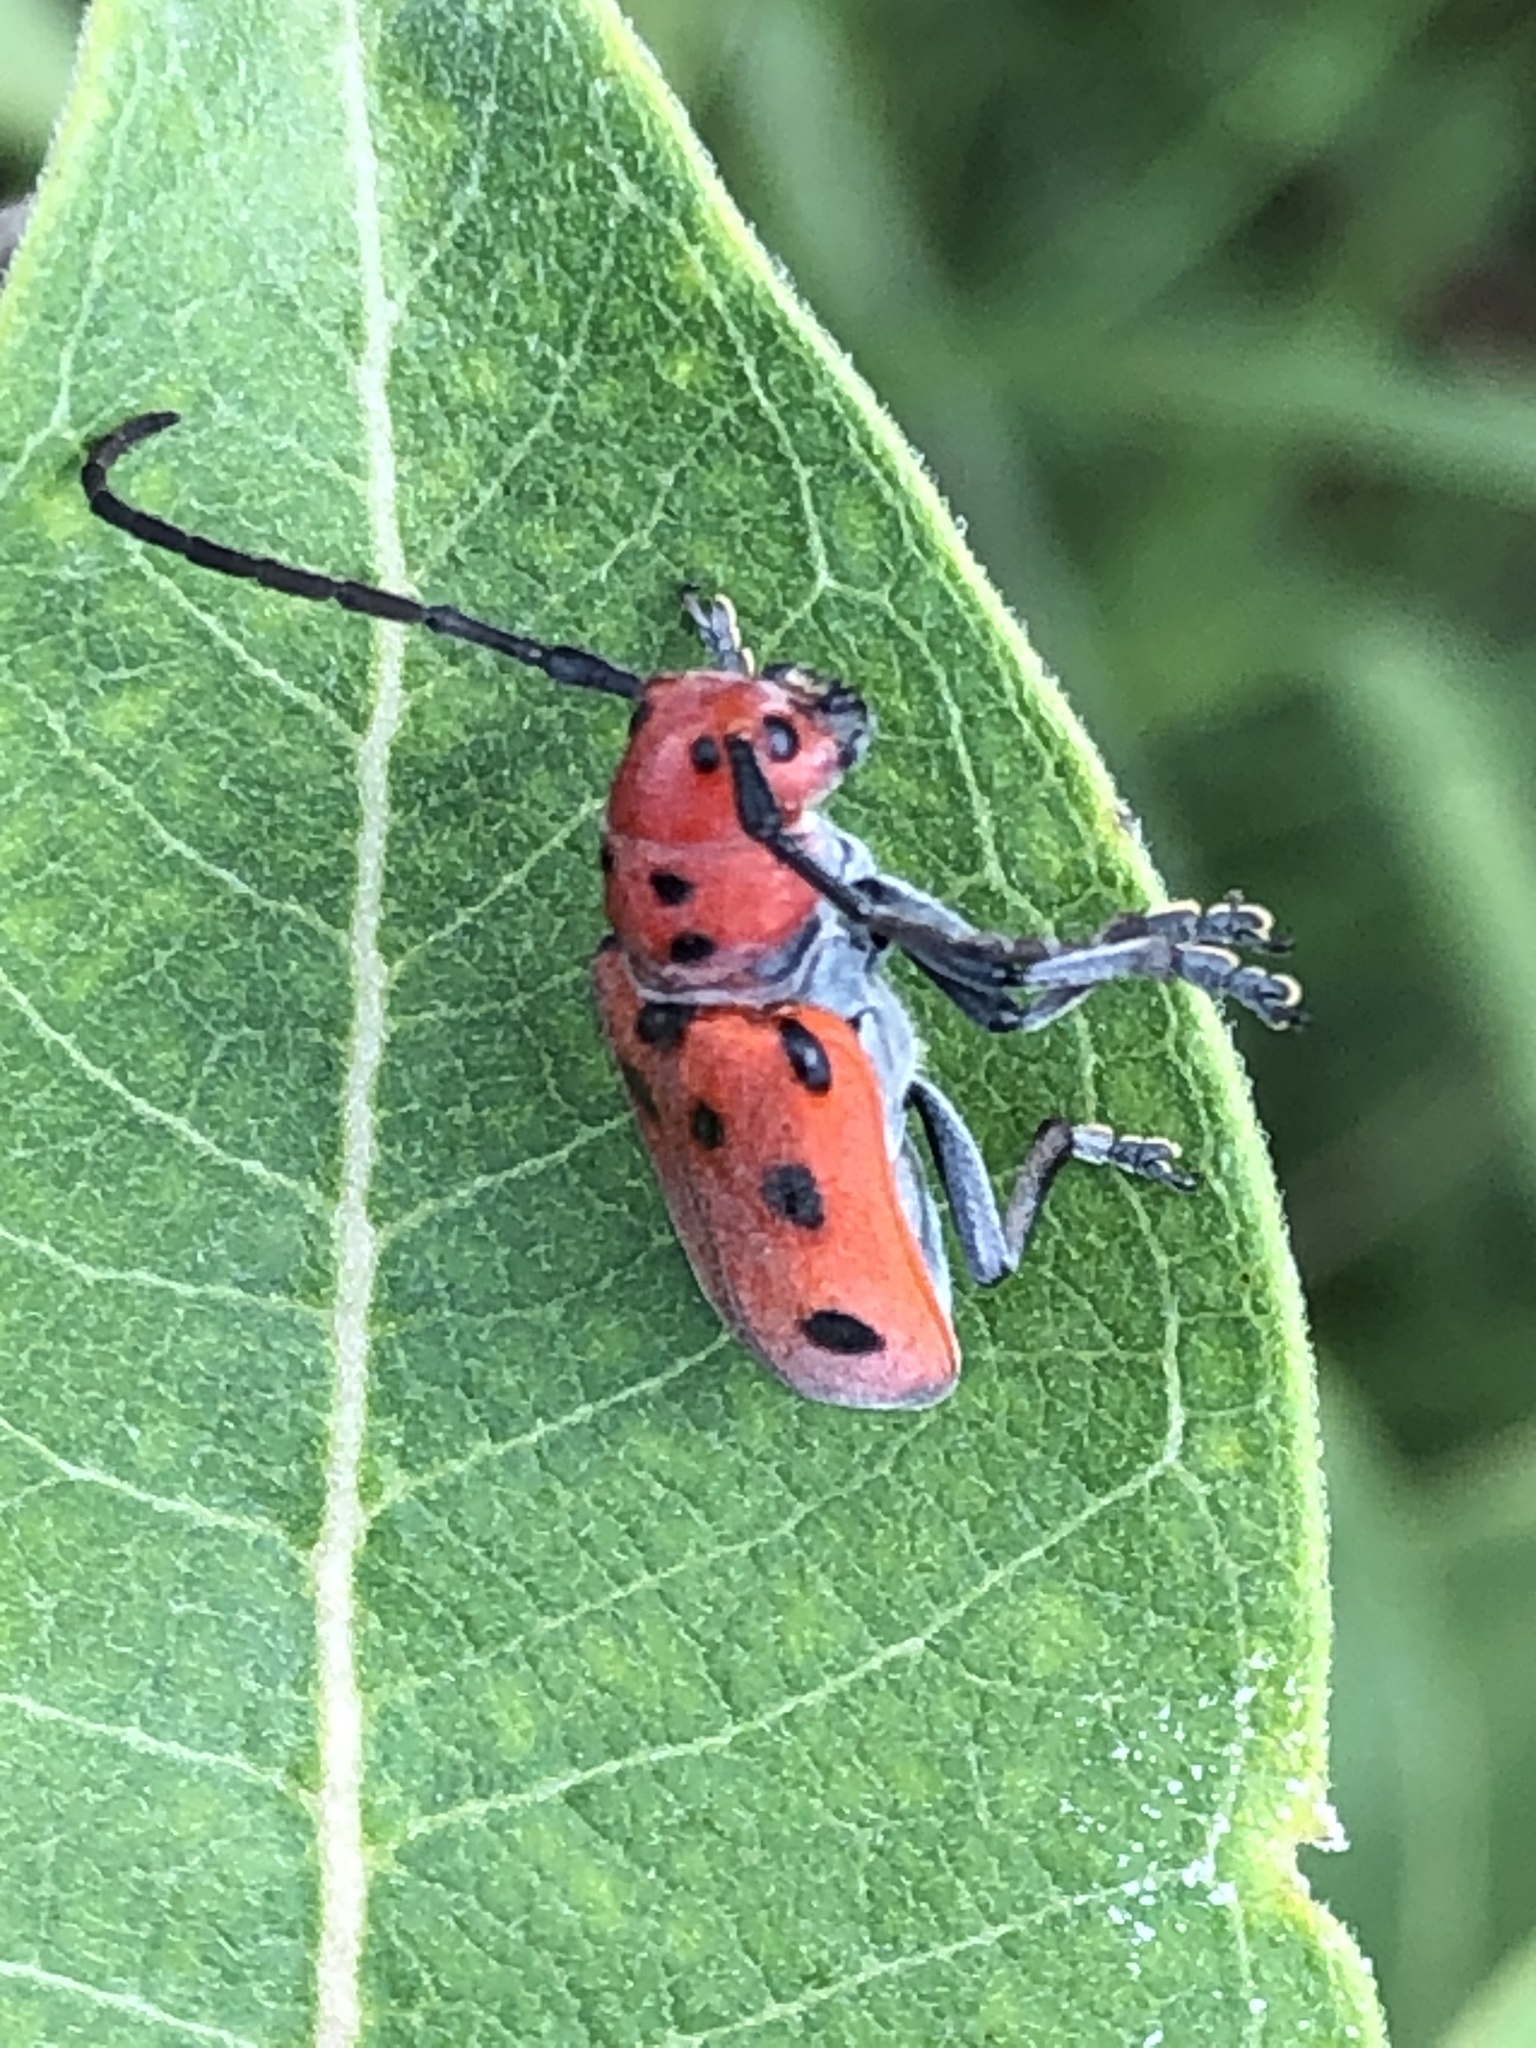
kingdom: Animalia
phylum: Arthropoda
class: Insecta
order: Coleoptera
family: Cerambycidae
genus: Tetraopes
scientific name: Tetraopes tetrophthalmus
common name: Red milkweed beetle
